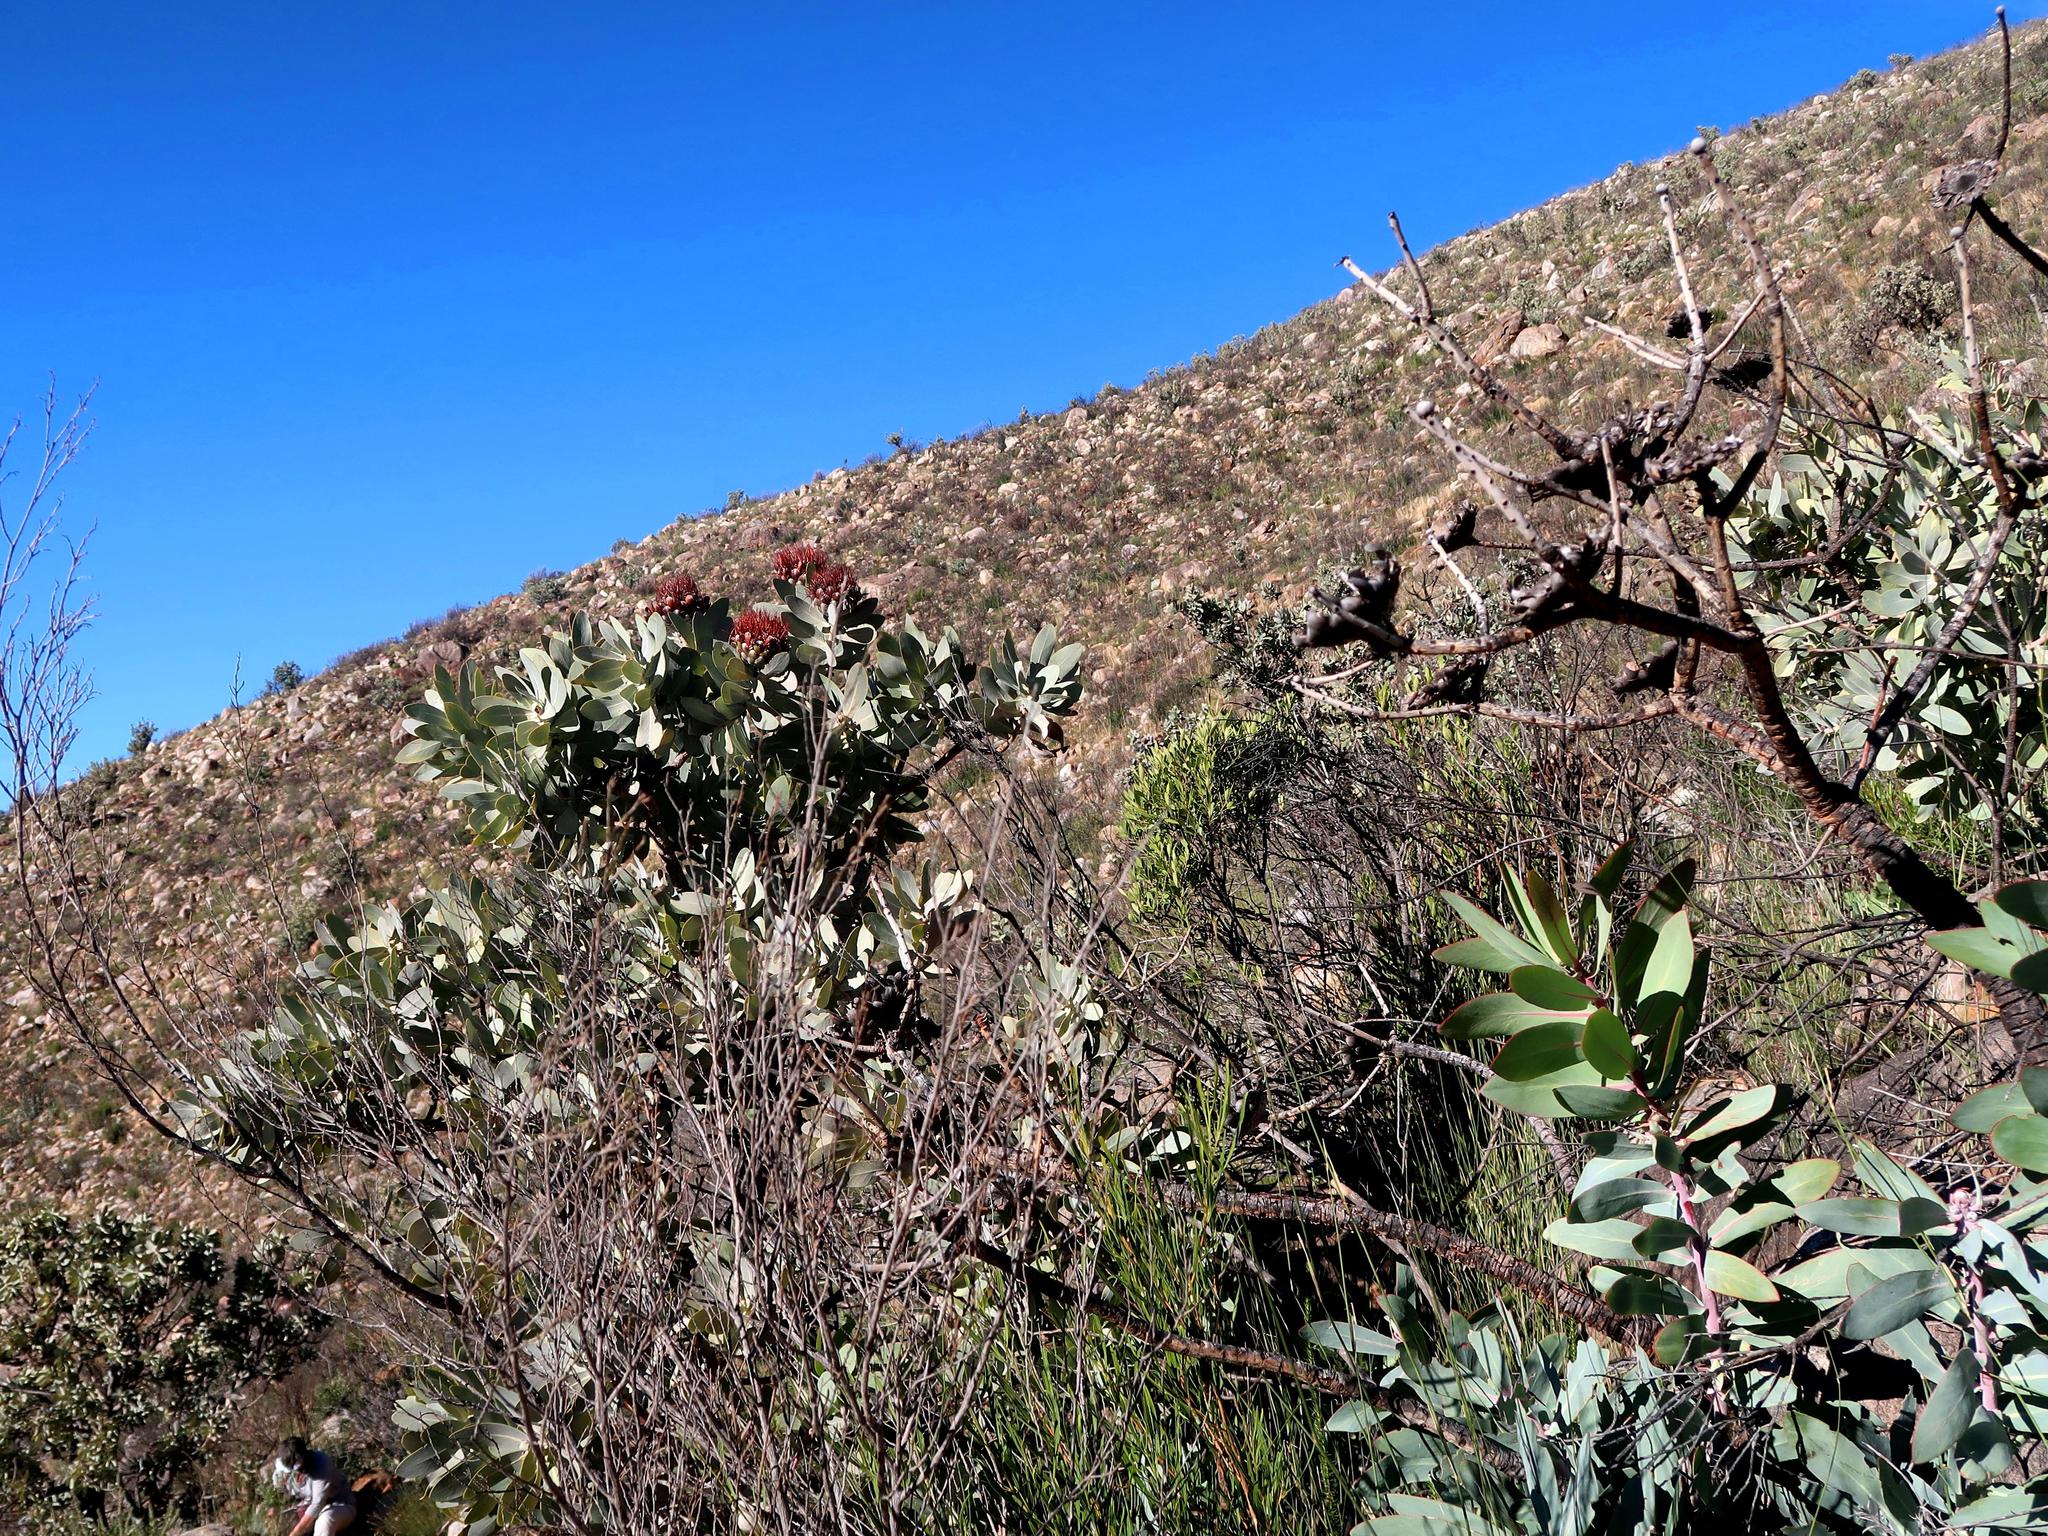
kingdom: Plantae
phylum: Tracheophyta
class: Magnoliopsida
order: Proteales
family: Proteaceae
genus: Protea
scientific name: Protea nitida
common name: Tree protea
